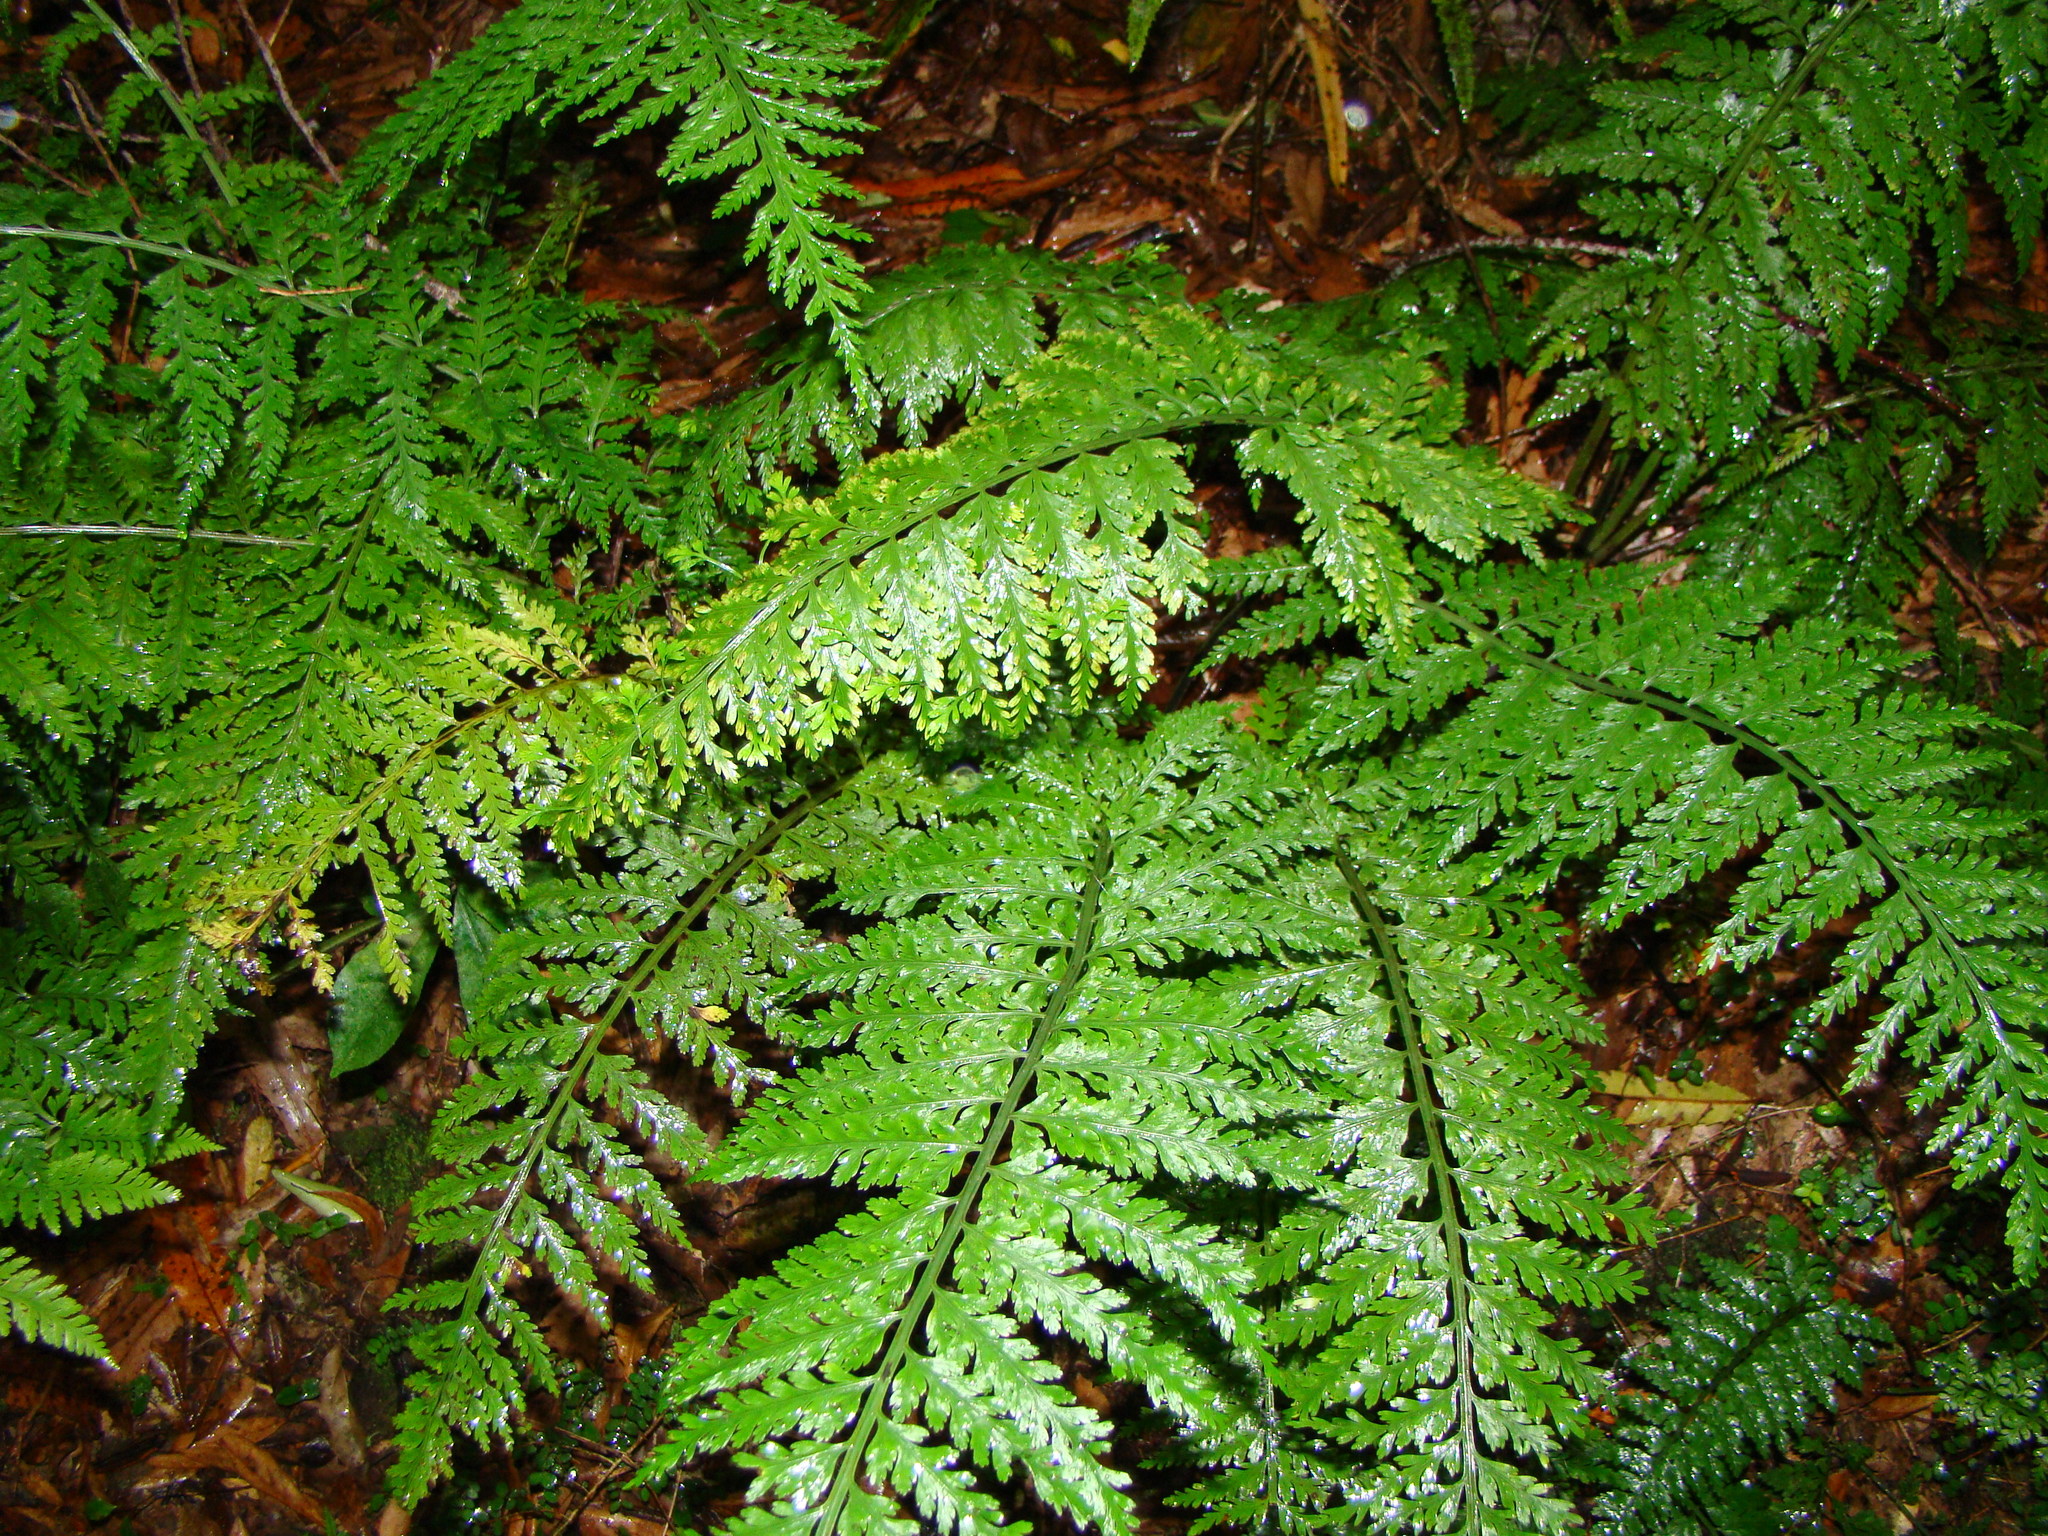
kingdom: Plantae
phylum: Tracheophyta
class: Polypodiopsida
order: Polypodiales
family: Aspleniaceae
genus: Asplenium
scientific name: Asplenium bulbiferum
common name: Mother fern
